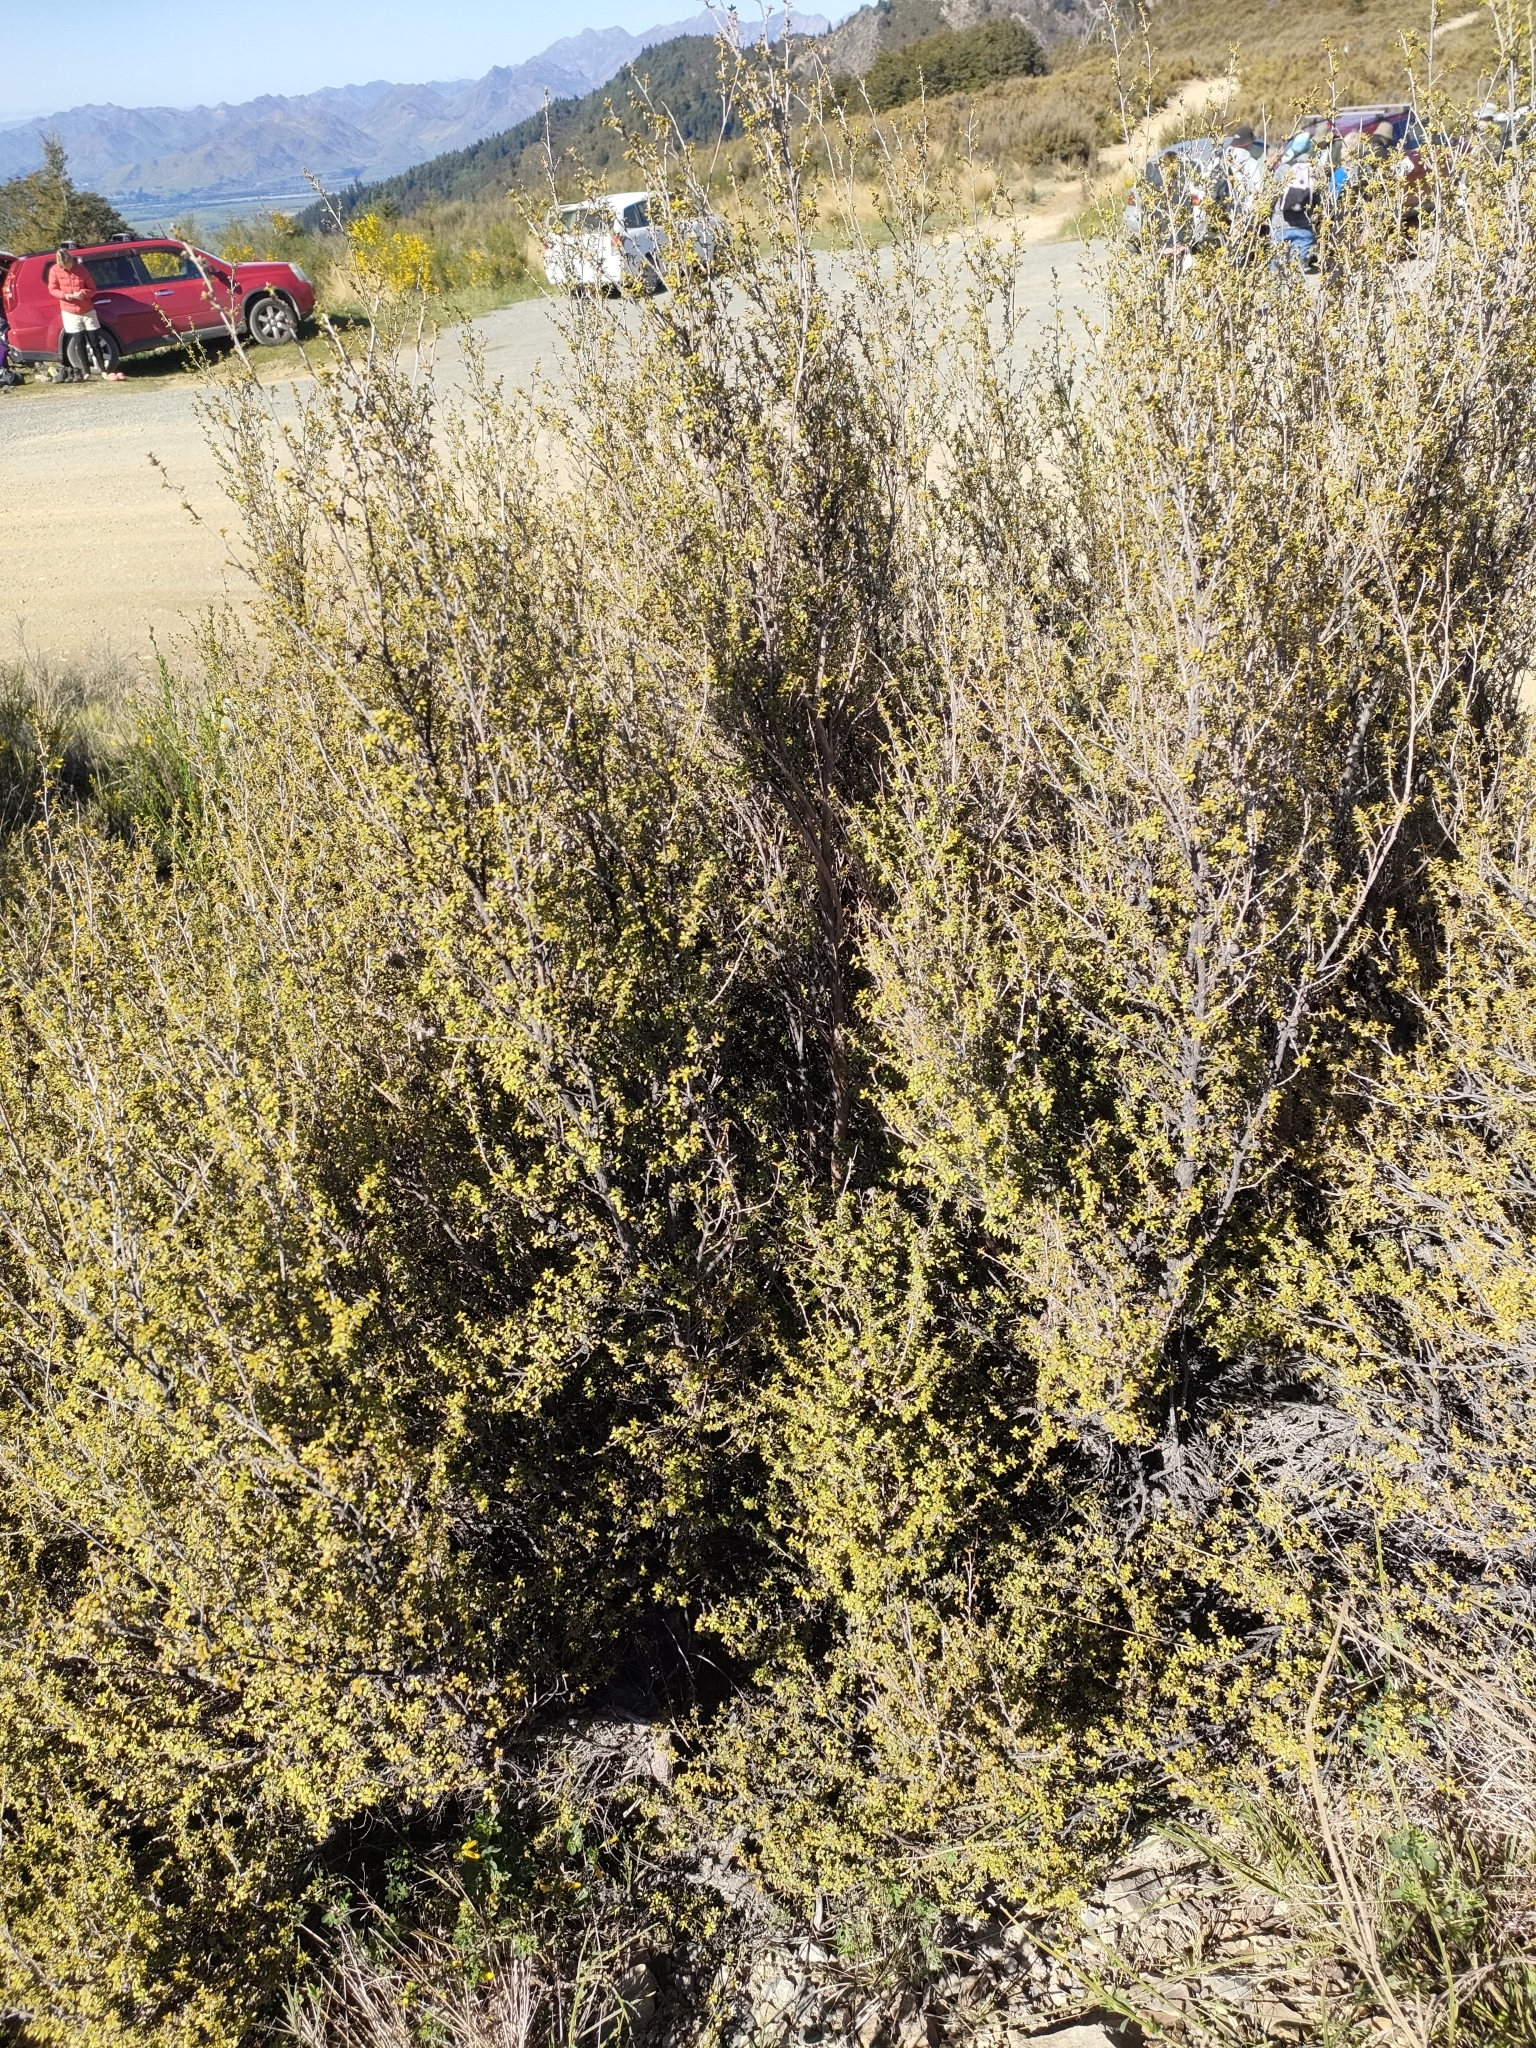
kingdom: Plantae
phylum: Tracheophyta
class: Magnoliopsida
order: Myrtales
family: Myrtaceae
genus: Leptospermum
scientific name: Leptospermum scoparium
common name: Broom tea-tree
